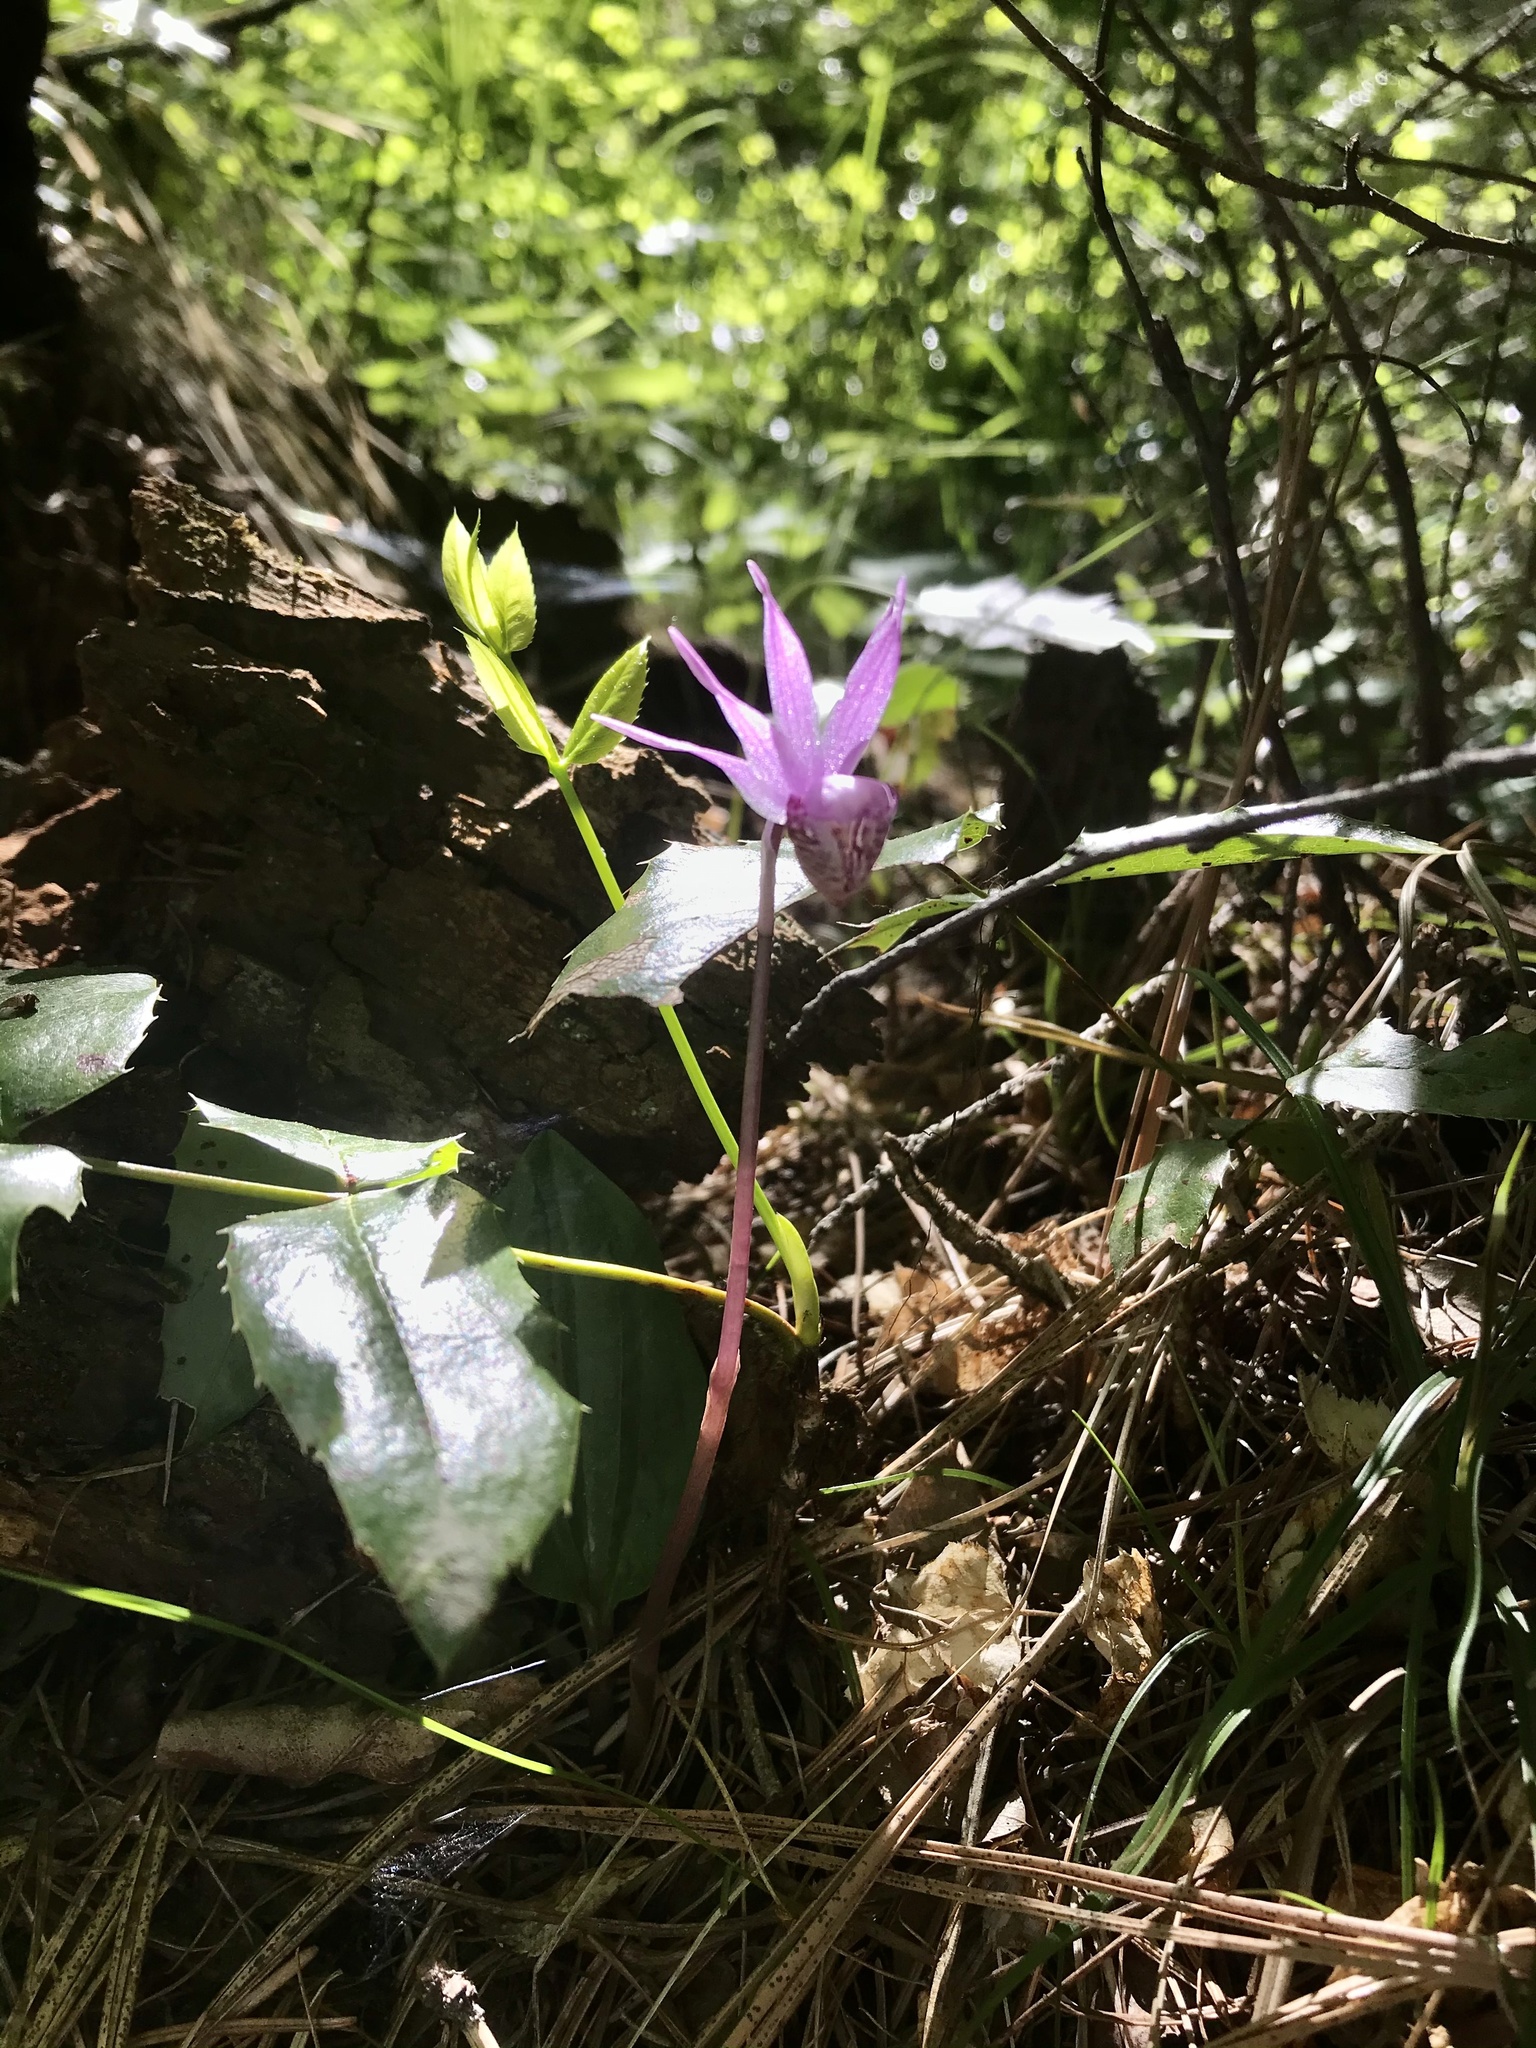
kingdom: Plantae
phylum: Tracheophyta
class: Liliopsida
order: Asparagales
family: Orchidaceae
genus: Calypso
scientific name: Calypso bulbosa
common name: Calypso
